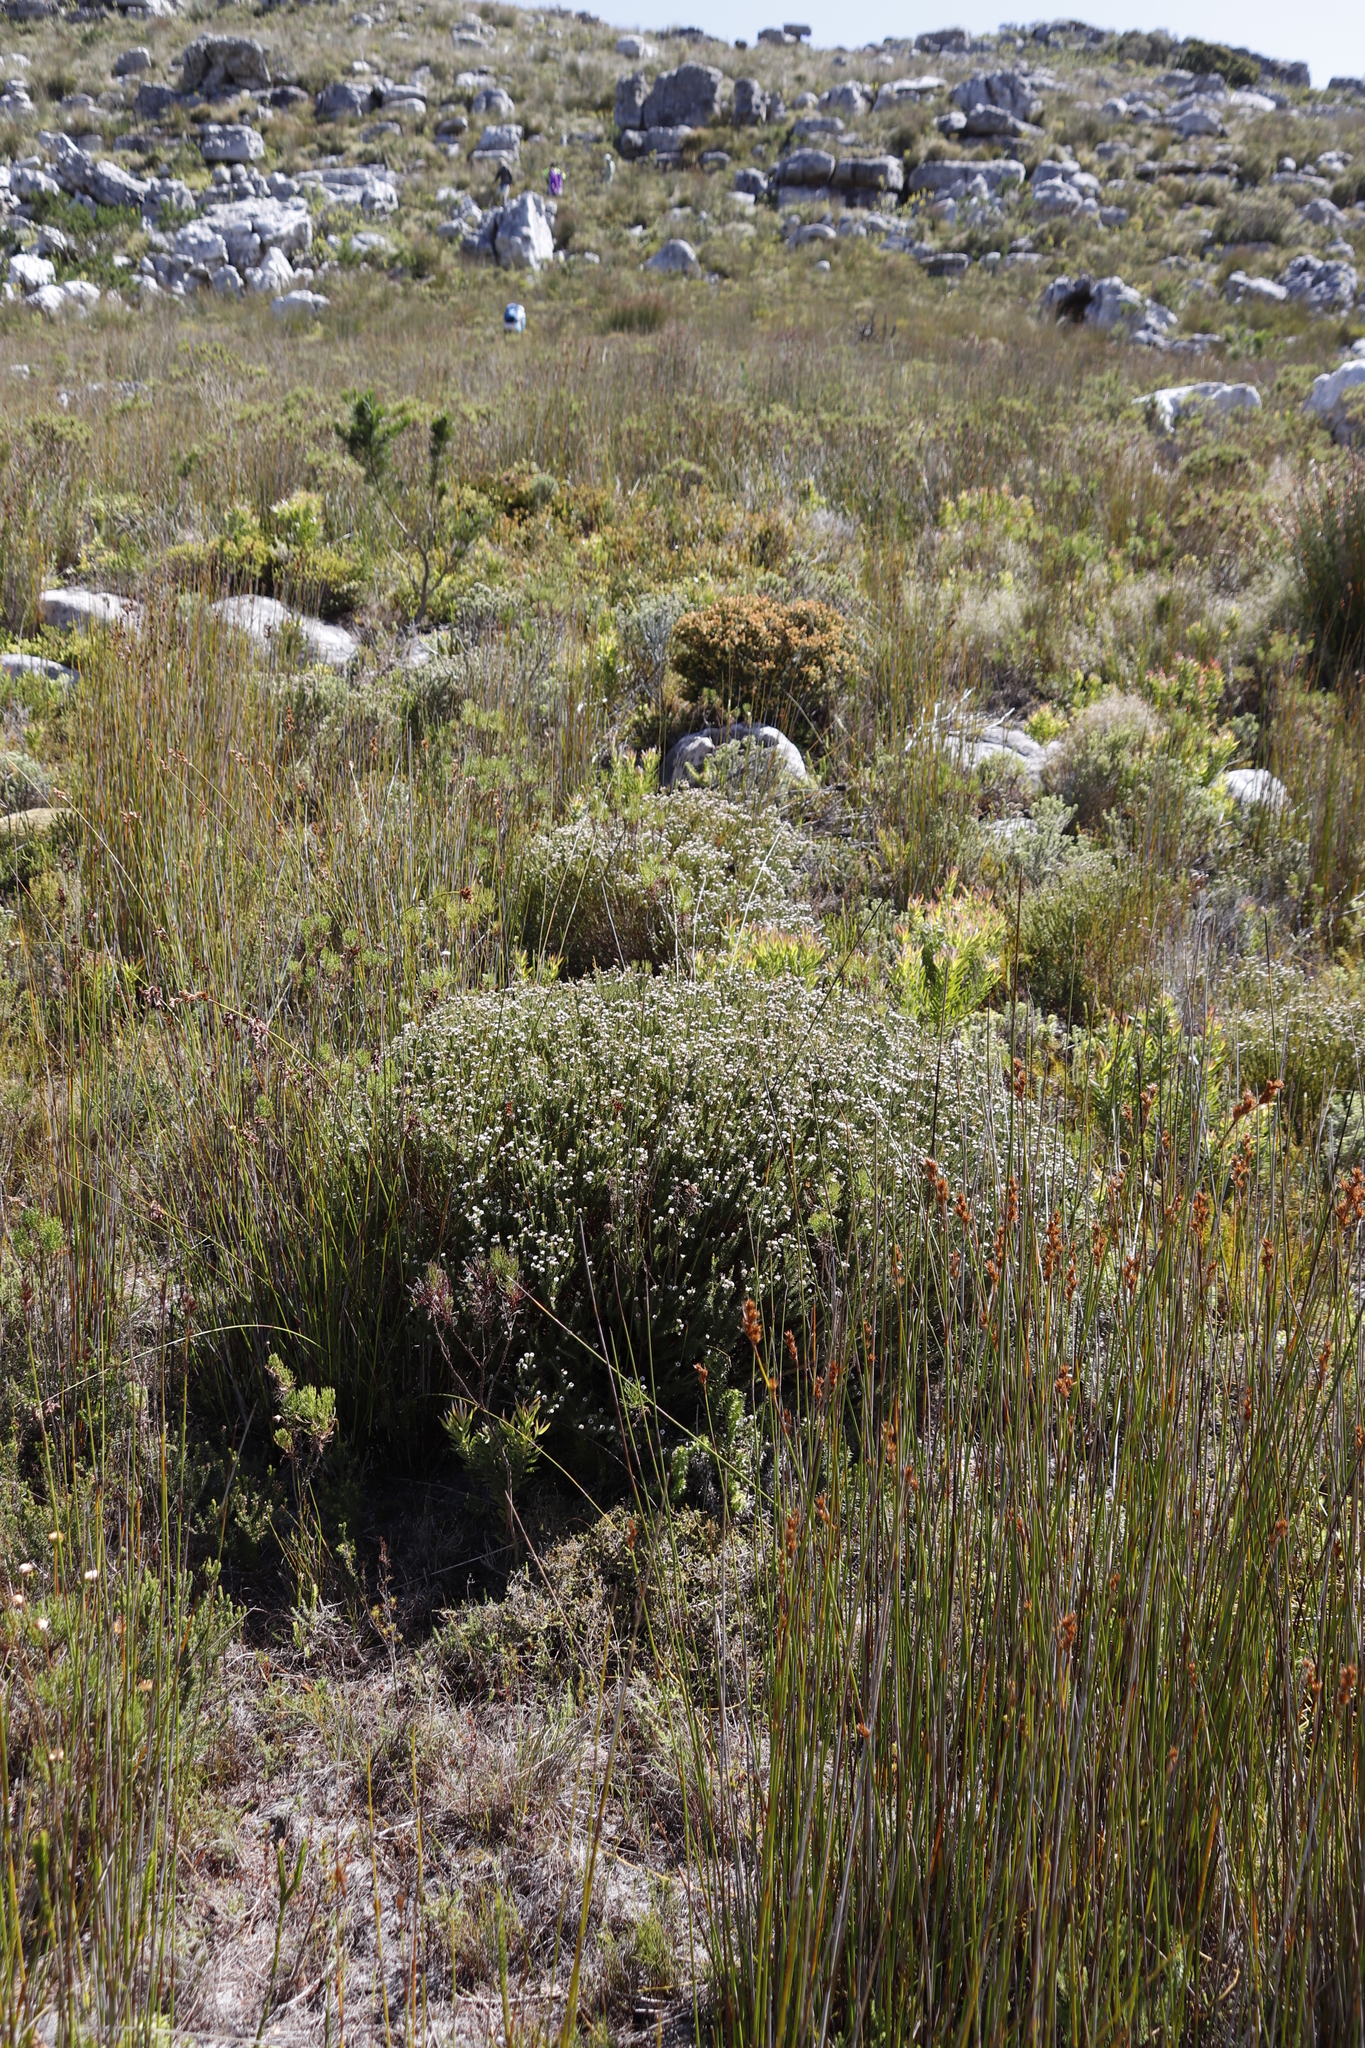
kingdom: Plantae
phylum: Tracheophyta
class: Magnoliopsida
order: Bruniales
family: Bruniaceae
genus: Staavia
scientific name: Staavia radiata
